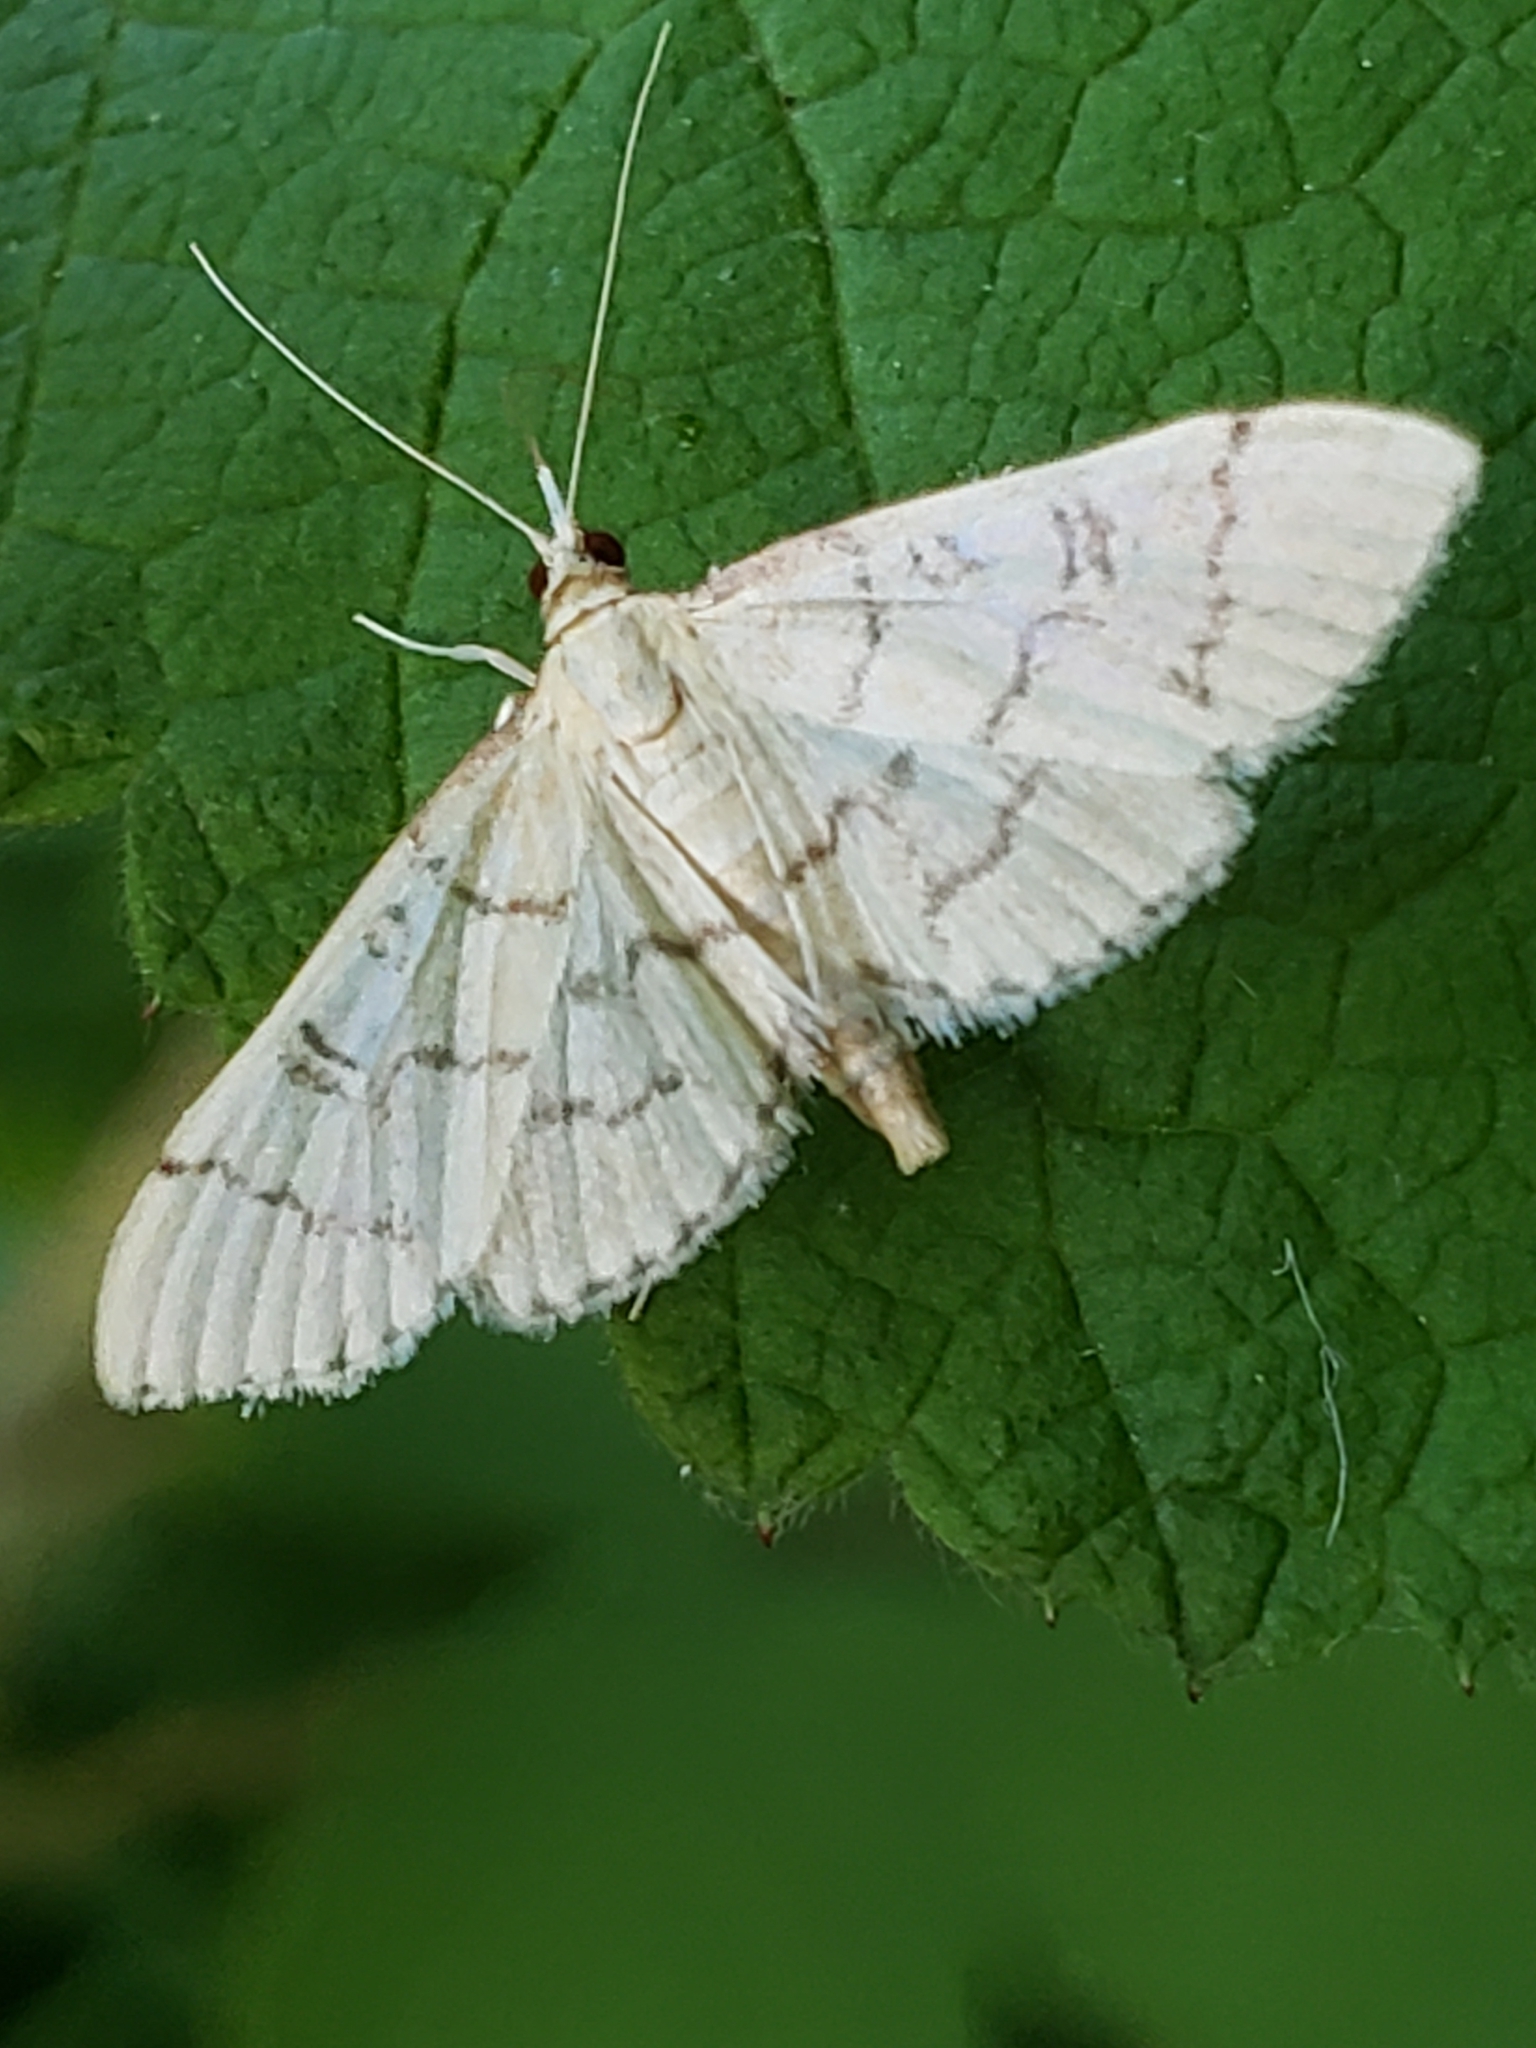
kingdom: Animalia
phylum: Arthropoda
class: Insecta
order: Lepidoptera
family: Crambidae
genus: Lamprosema
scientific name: Lamprosema Blepharomastix ranalis
